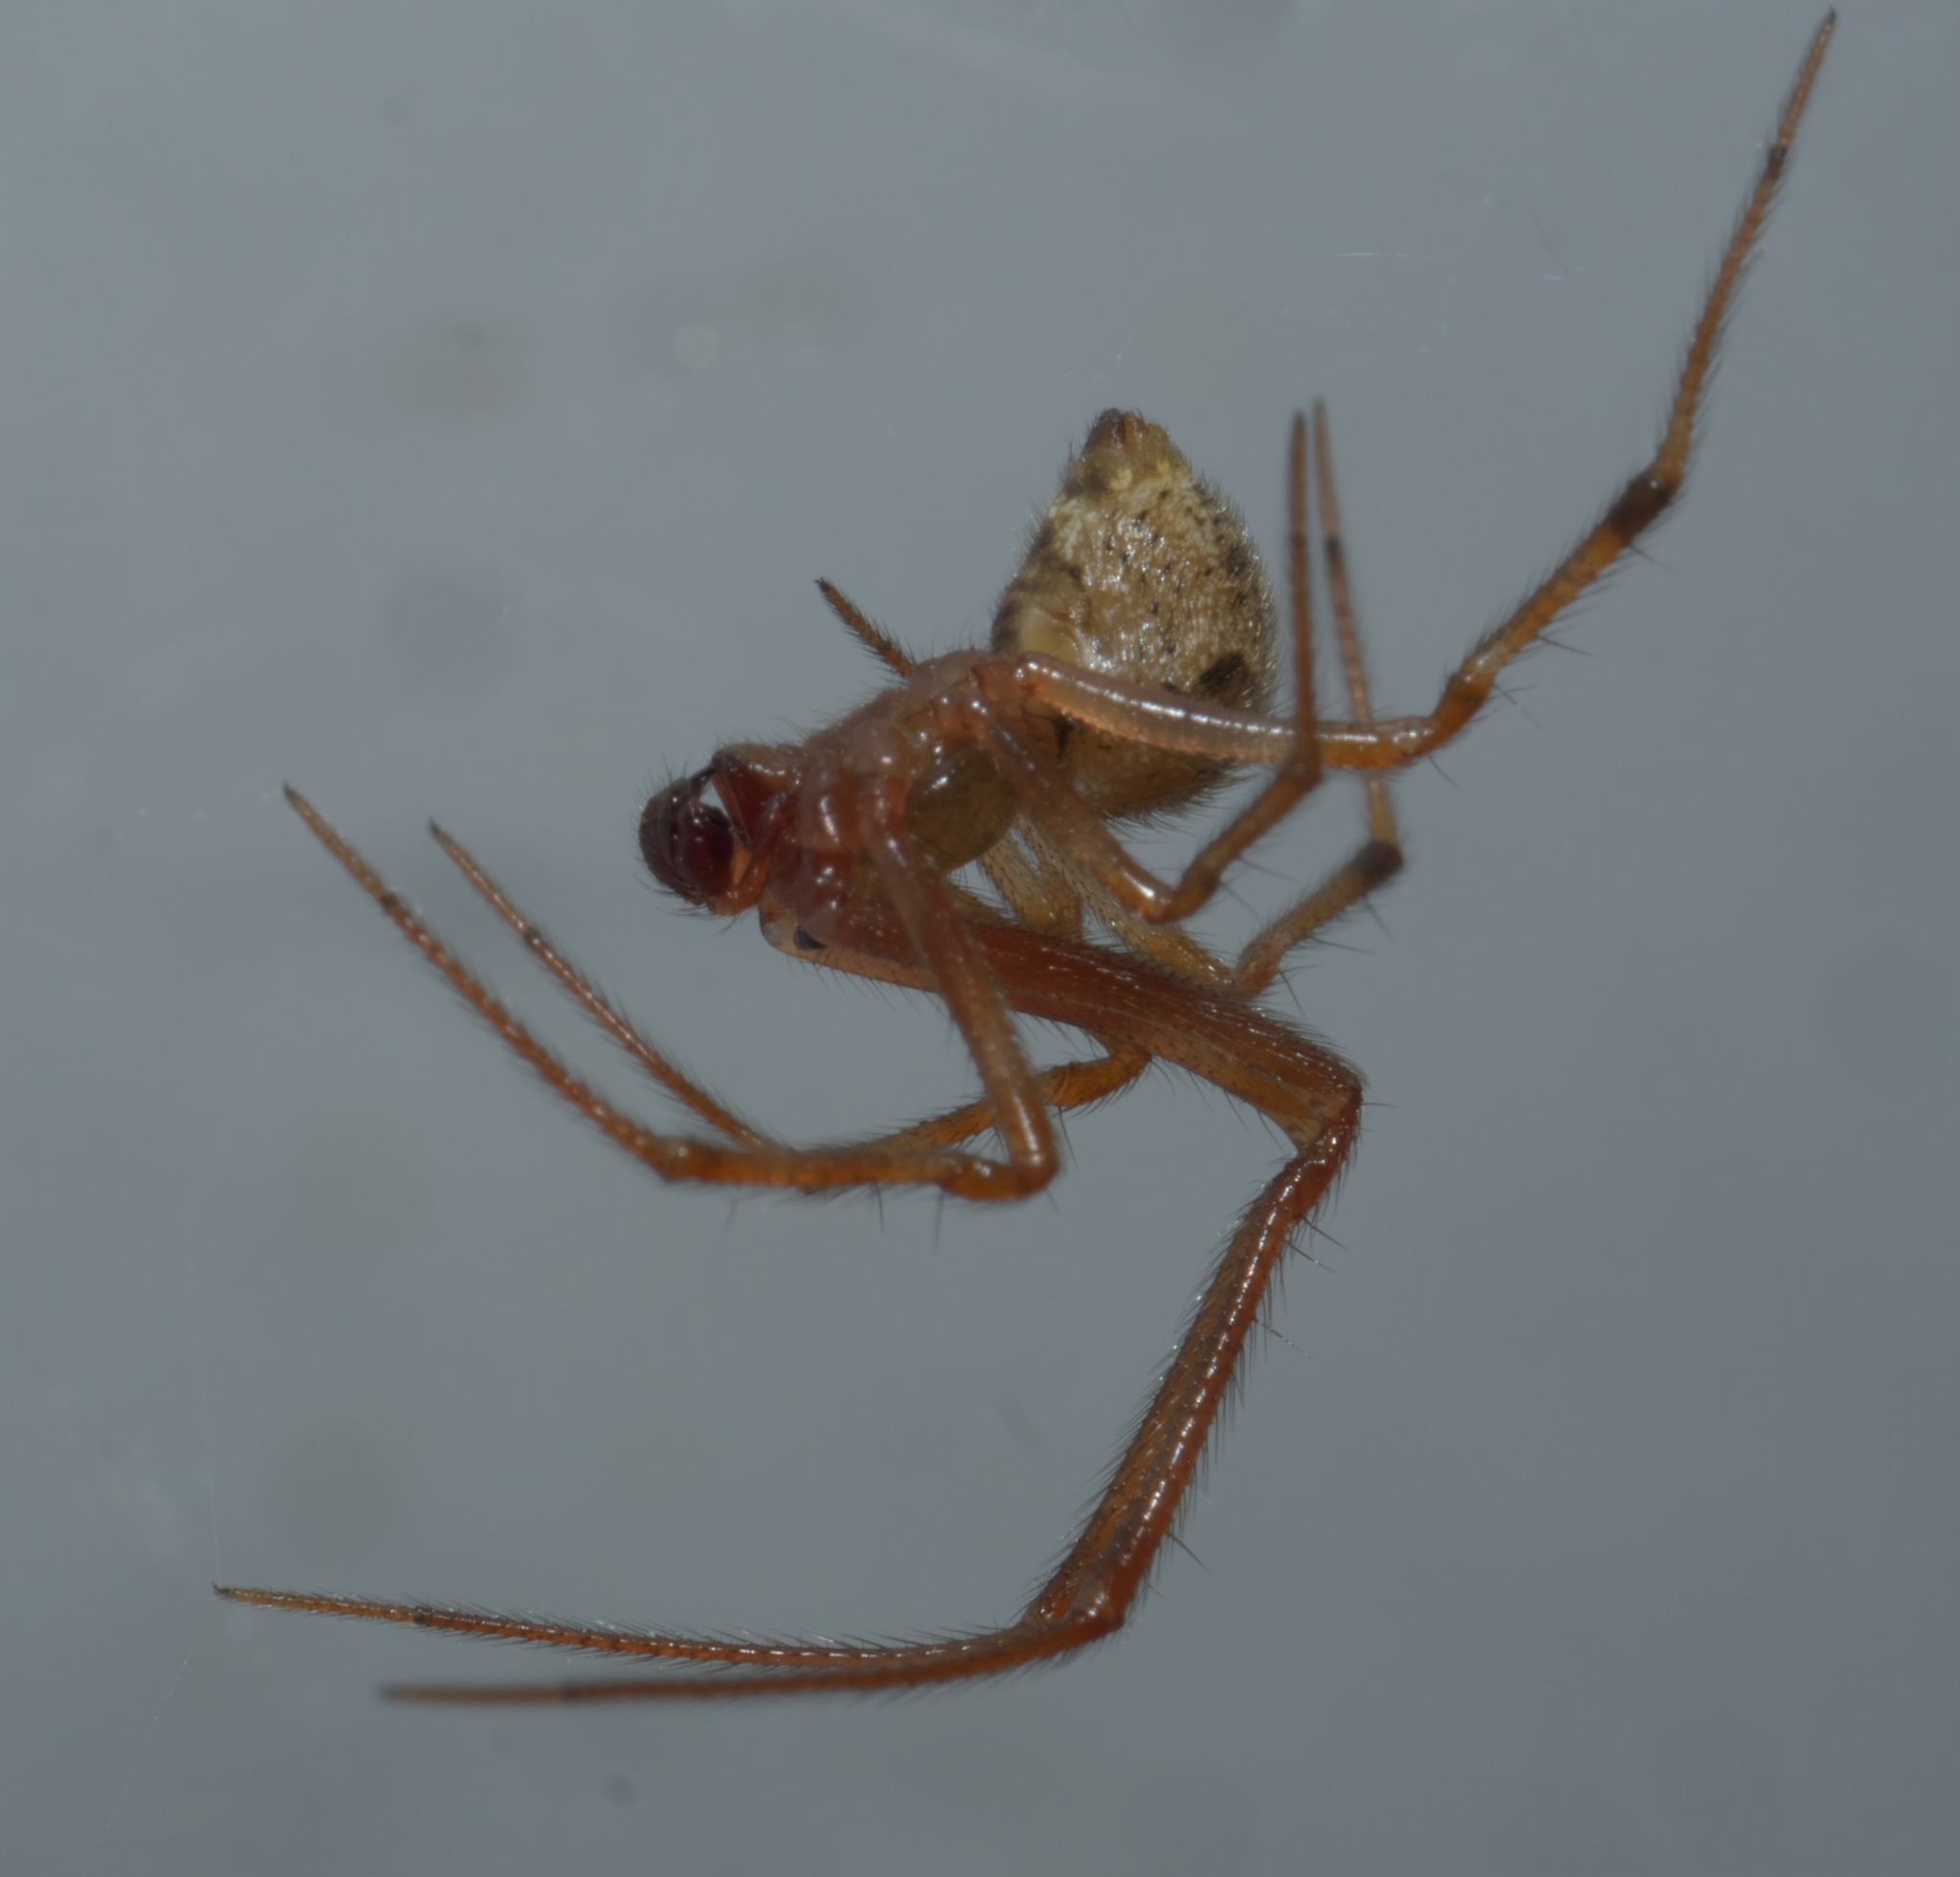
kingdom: Animalia
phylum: Arthropoda
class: Arachnida
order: Araneae
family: Theridiidae
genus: Parasteatoda
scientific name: Parasteatoda tepidariorum
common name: Common house spider
